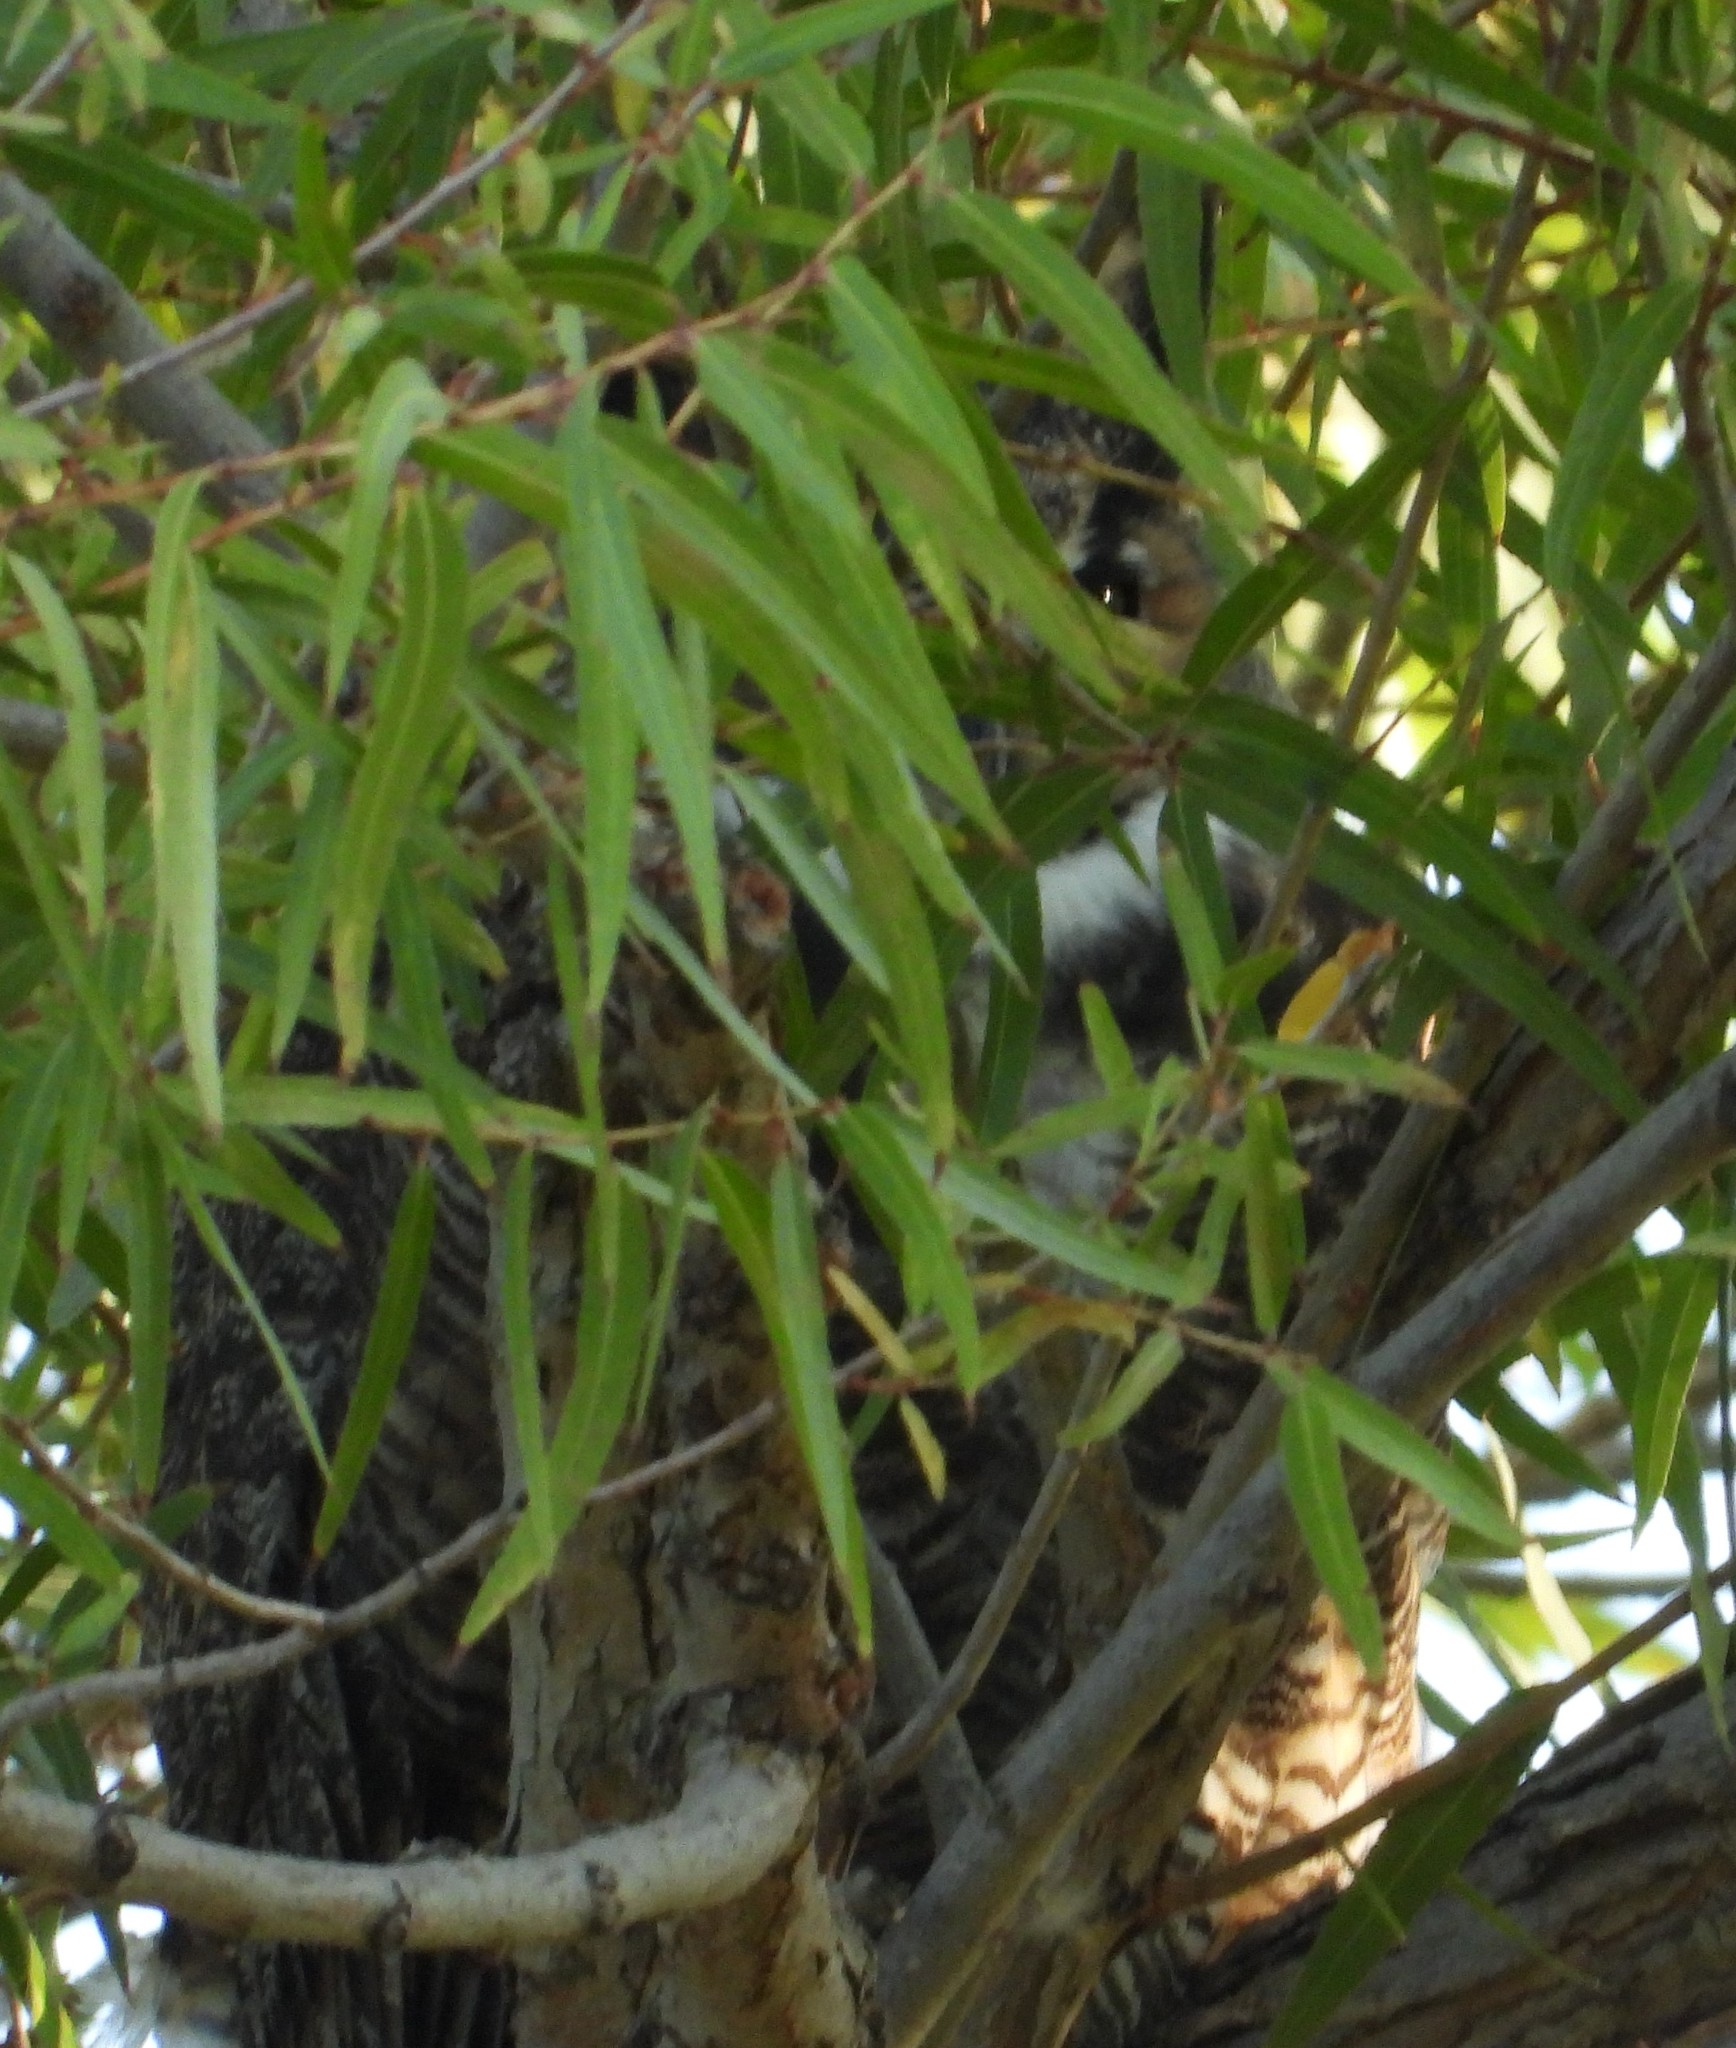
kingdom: Animalia
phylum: Chordata
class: Aves
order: Strigiformes
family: Strigidae
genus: Bubo
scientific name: Bubo virginianus
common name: Great horned owl
